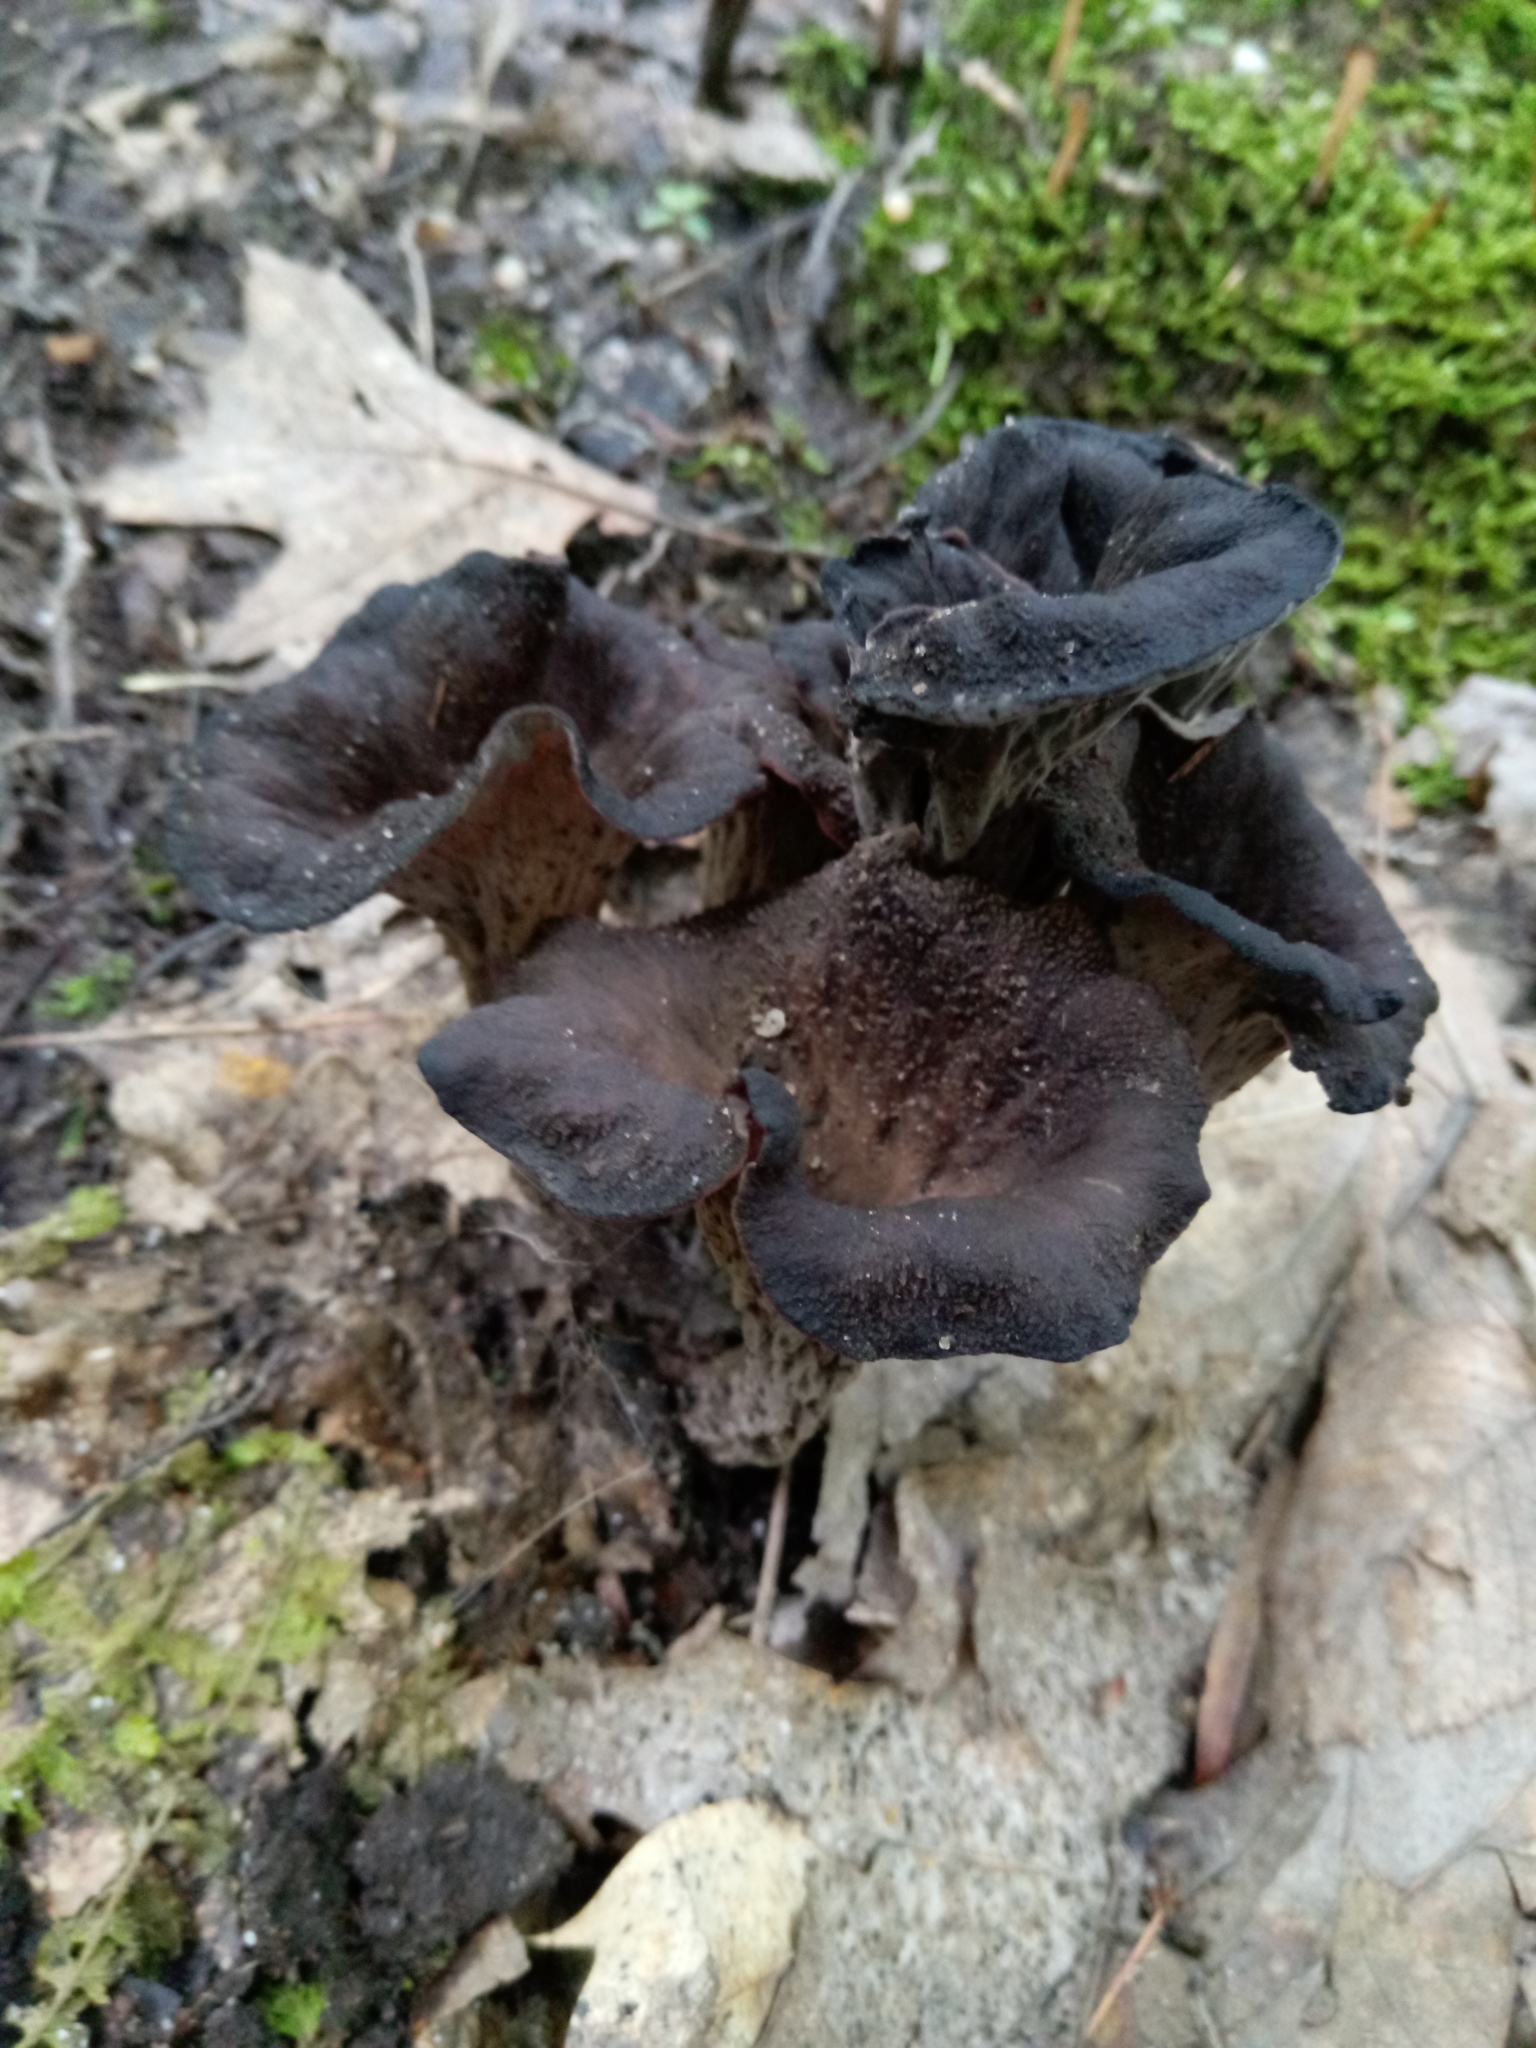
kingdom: Fungi
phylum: Basidiomycota
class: Agaricomycetes
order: Cantharellales
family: Hydnaceae
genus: Craterellus
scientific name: Craterellus cornucopioides
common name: Horn of plenty
